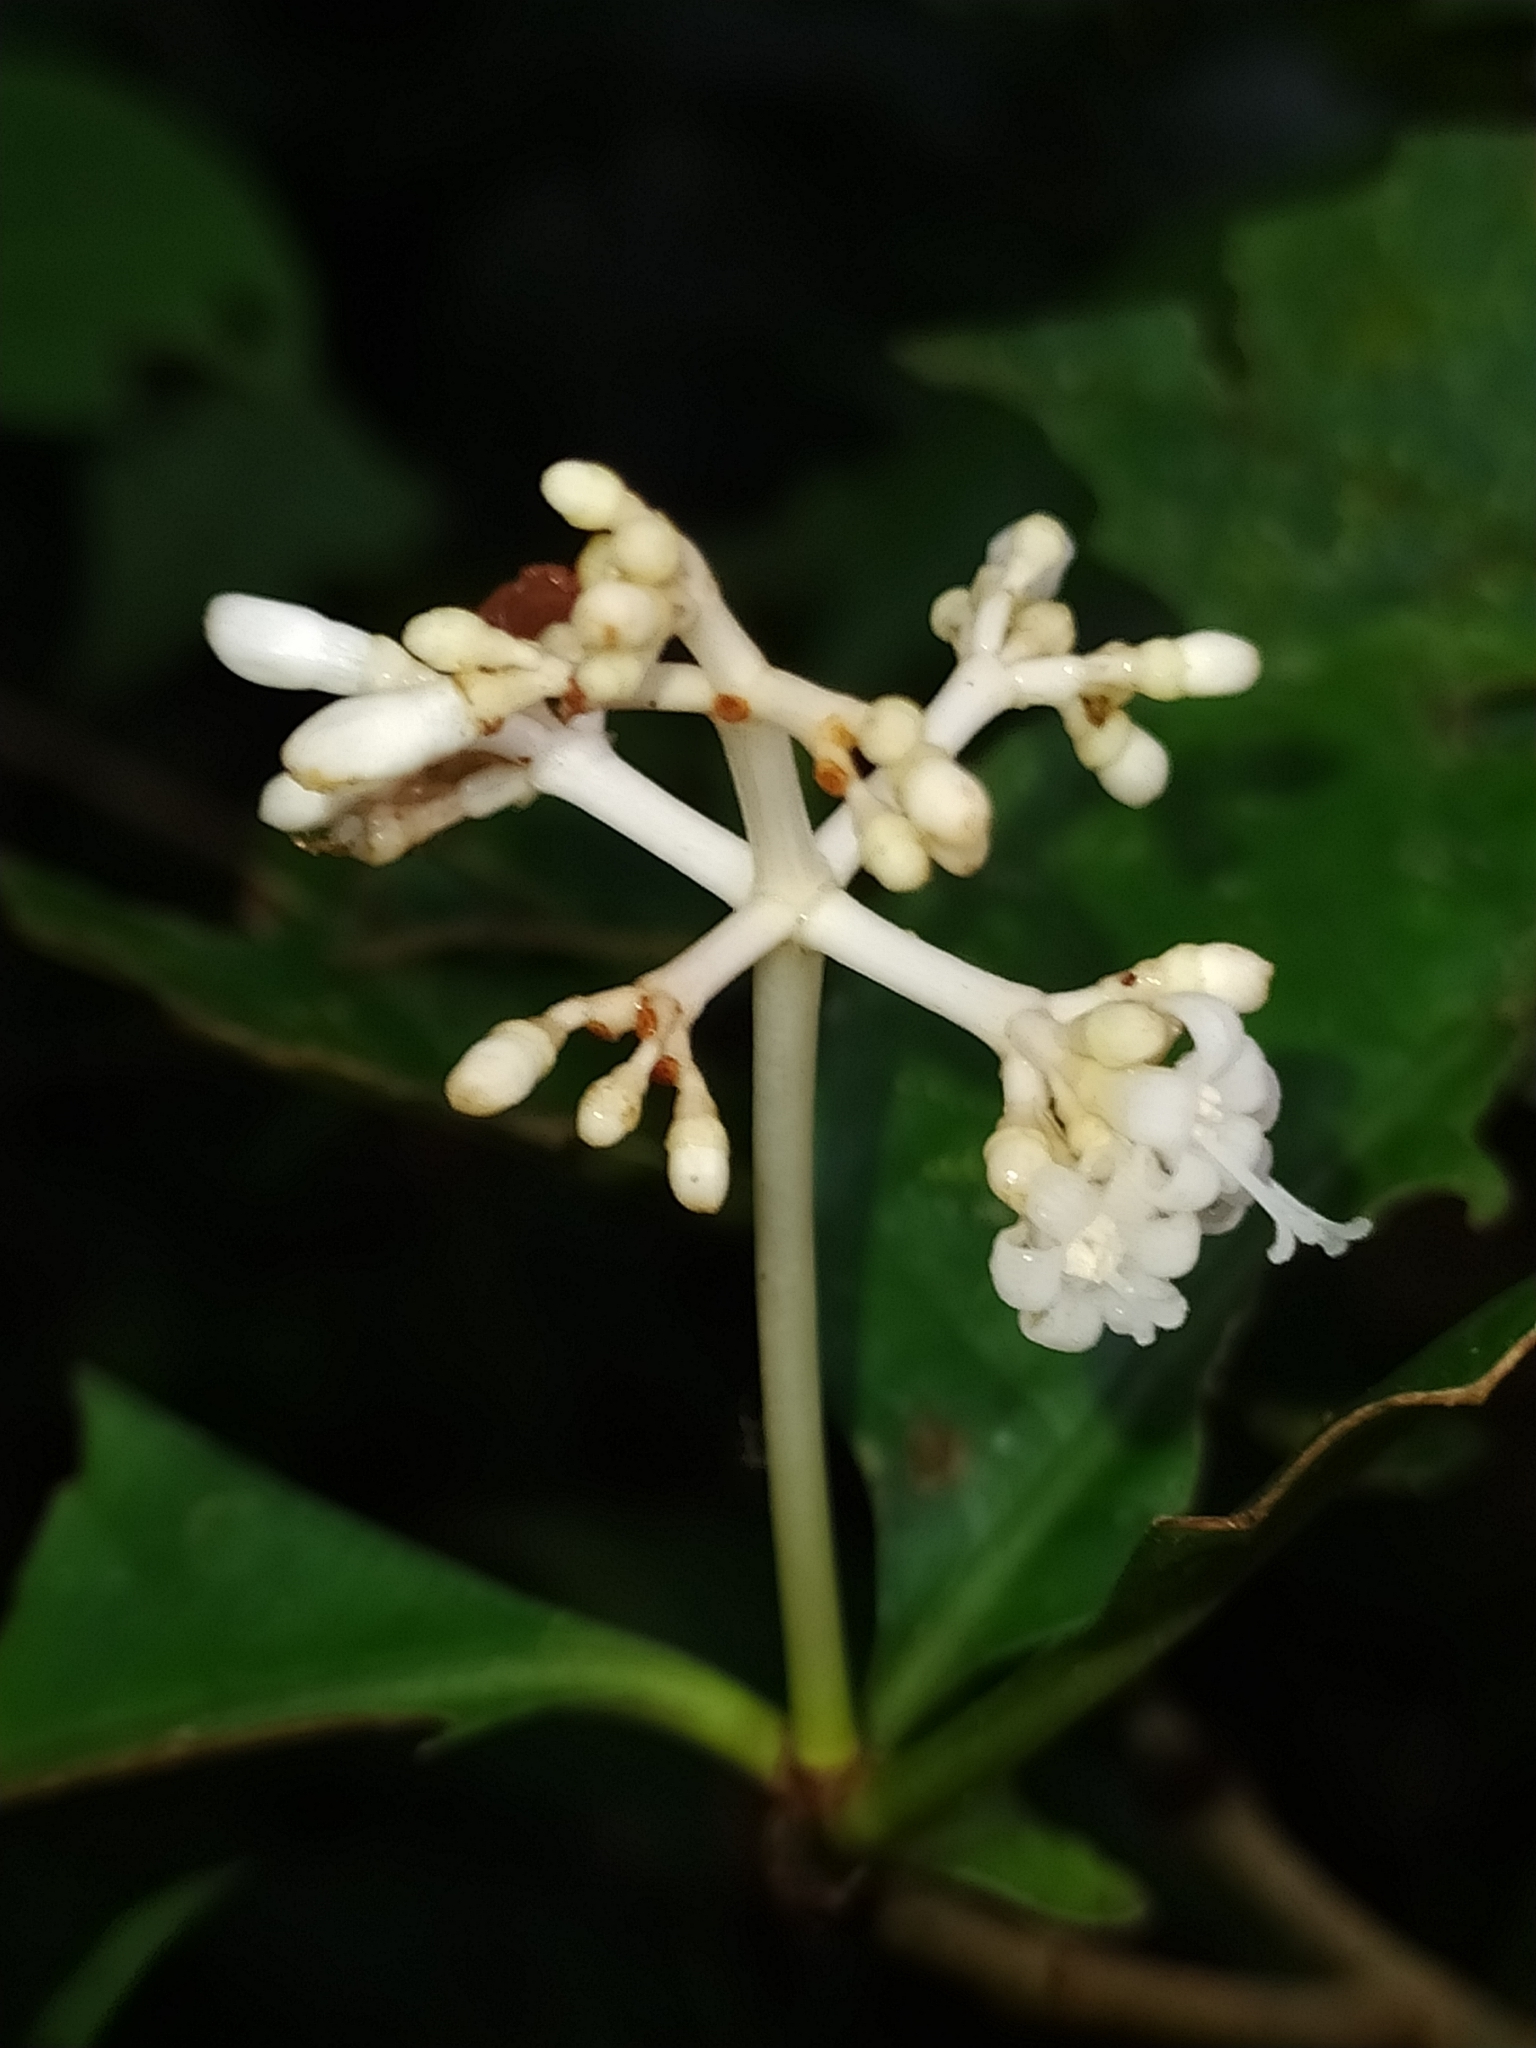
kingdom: Plantae
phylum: Tracheophyta
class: Magnoliopsida
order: Gentianales
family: Rubiaceae
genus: Psychotria
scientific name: Psychotria cupularis
